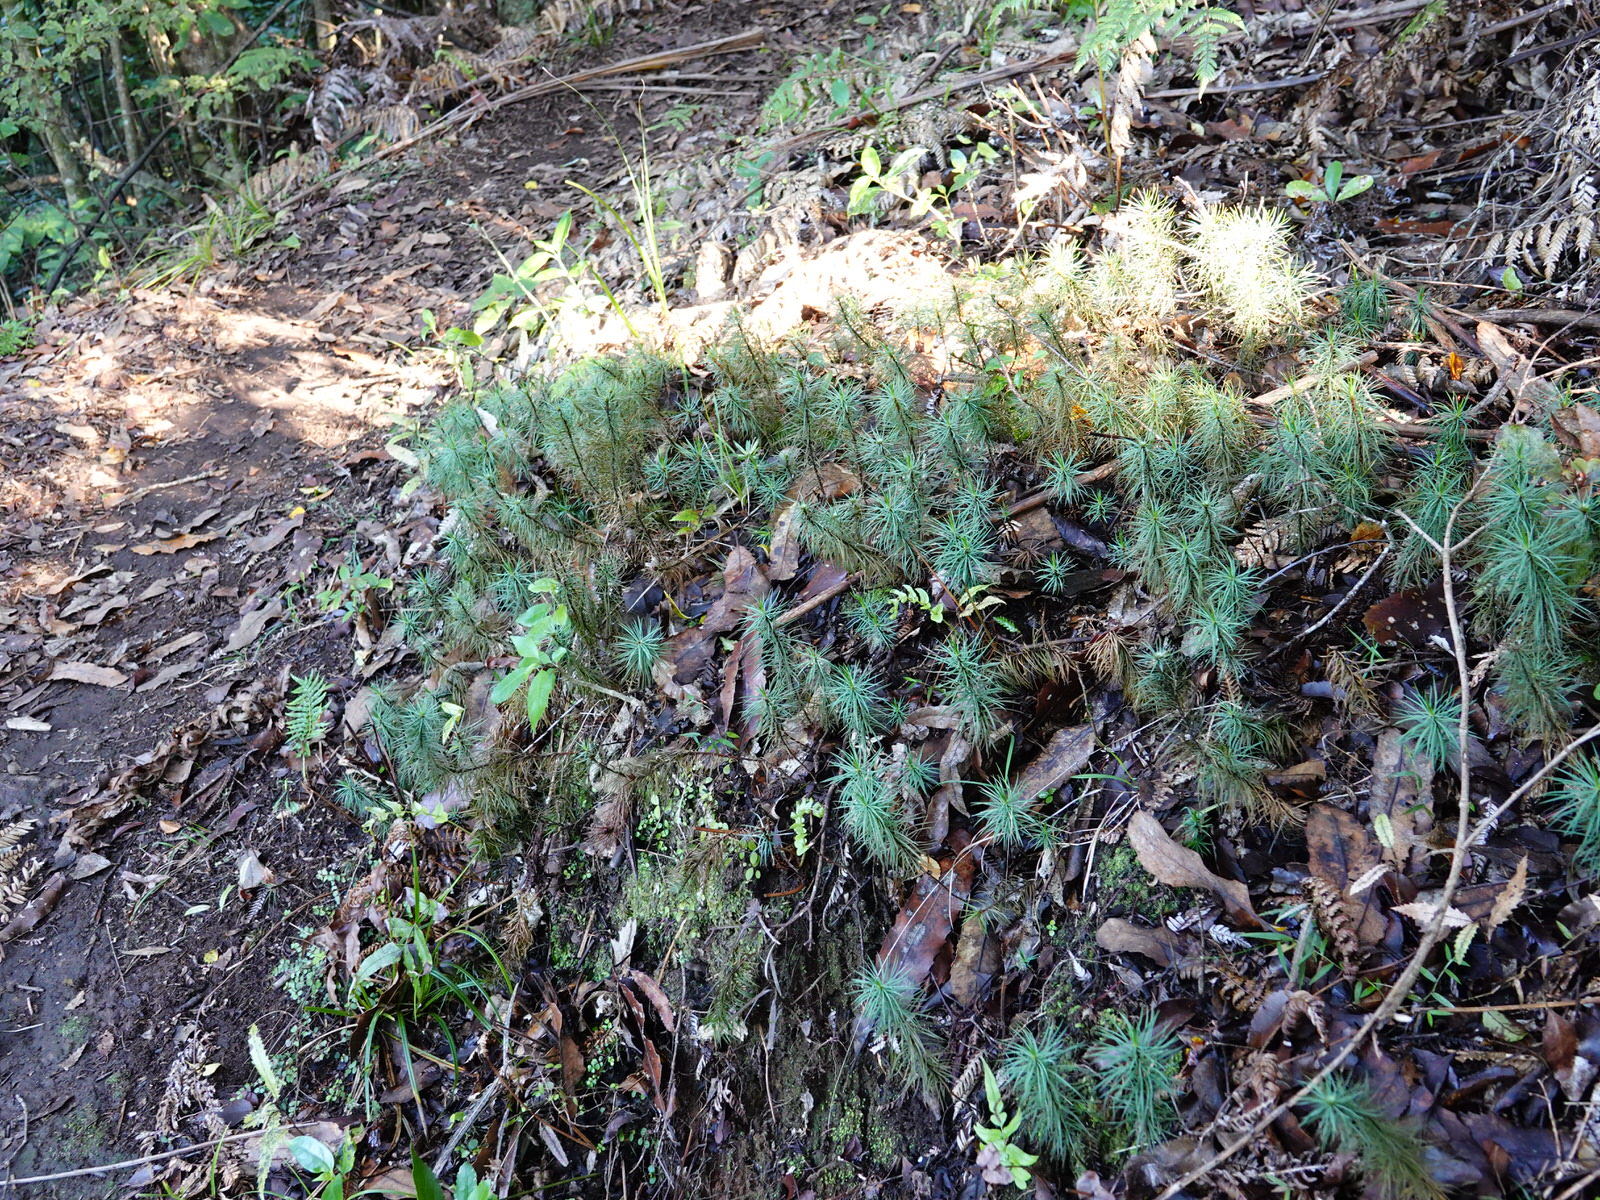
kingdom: Plantae
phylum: Bryophyta
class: Polytrichopsida
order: Polytrichales
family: Polytrichaceae
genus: Dawsonia
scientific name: Dawsonia superba
